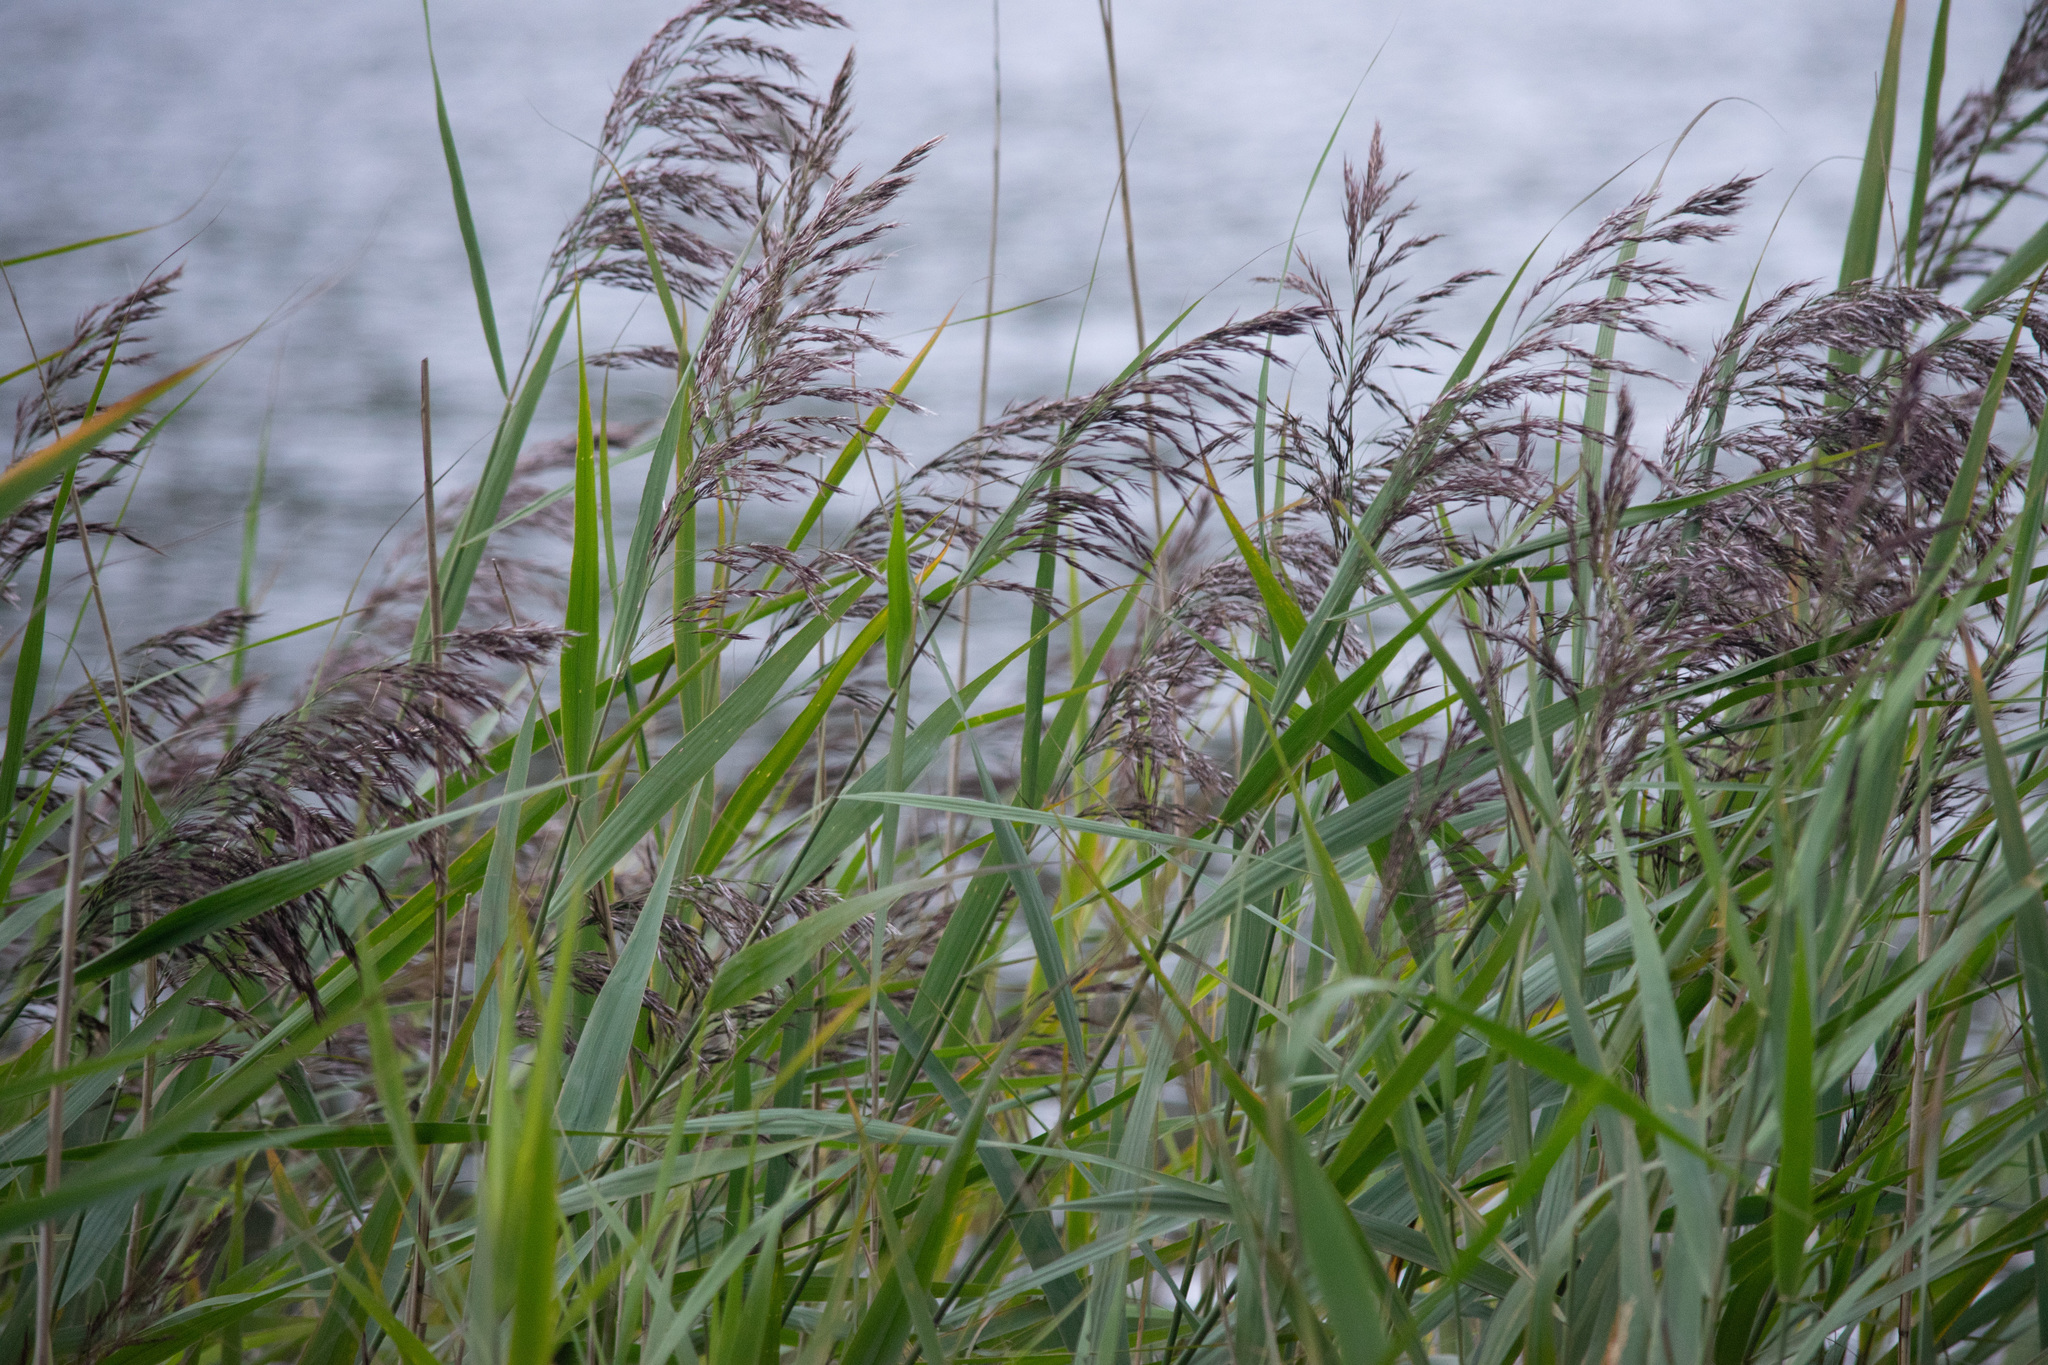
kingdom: Plantae
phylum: Tracheophyta
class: Liliopsida
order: Poales
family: Poaceae
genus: Phragmites
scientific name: Phragmites australis
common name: Common reed
